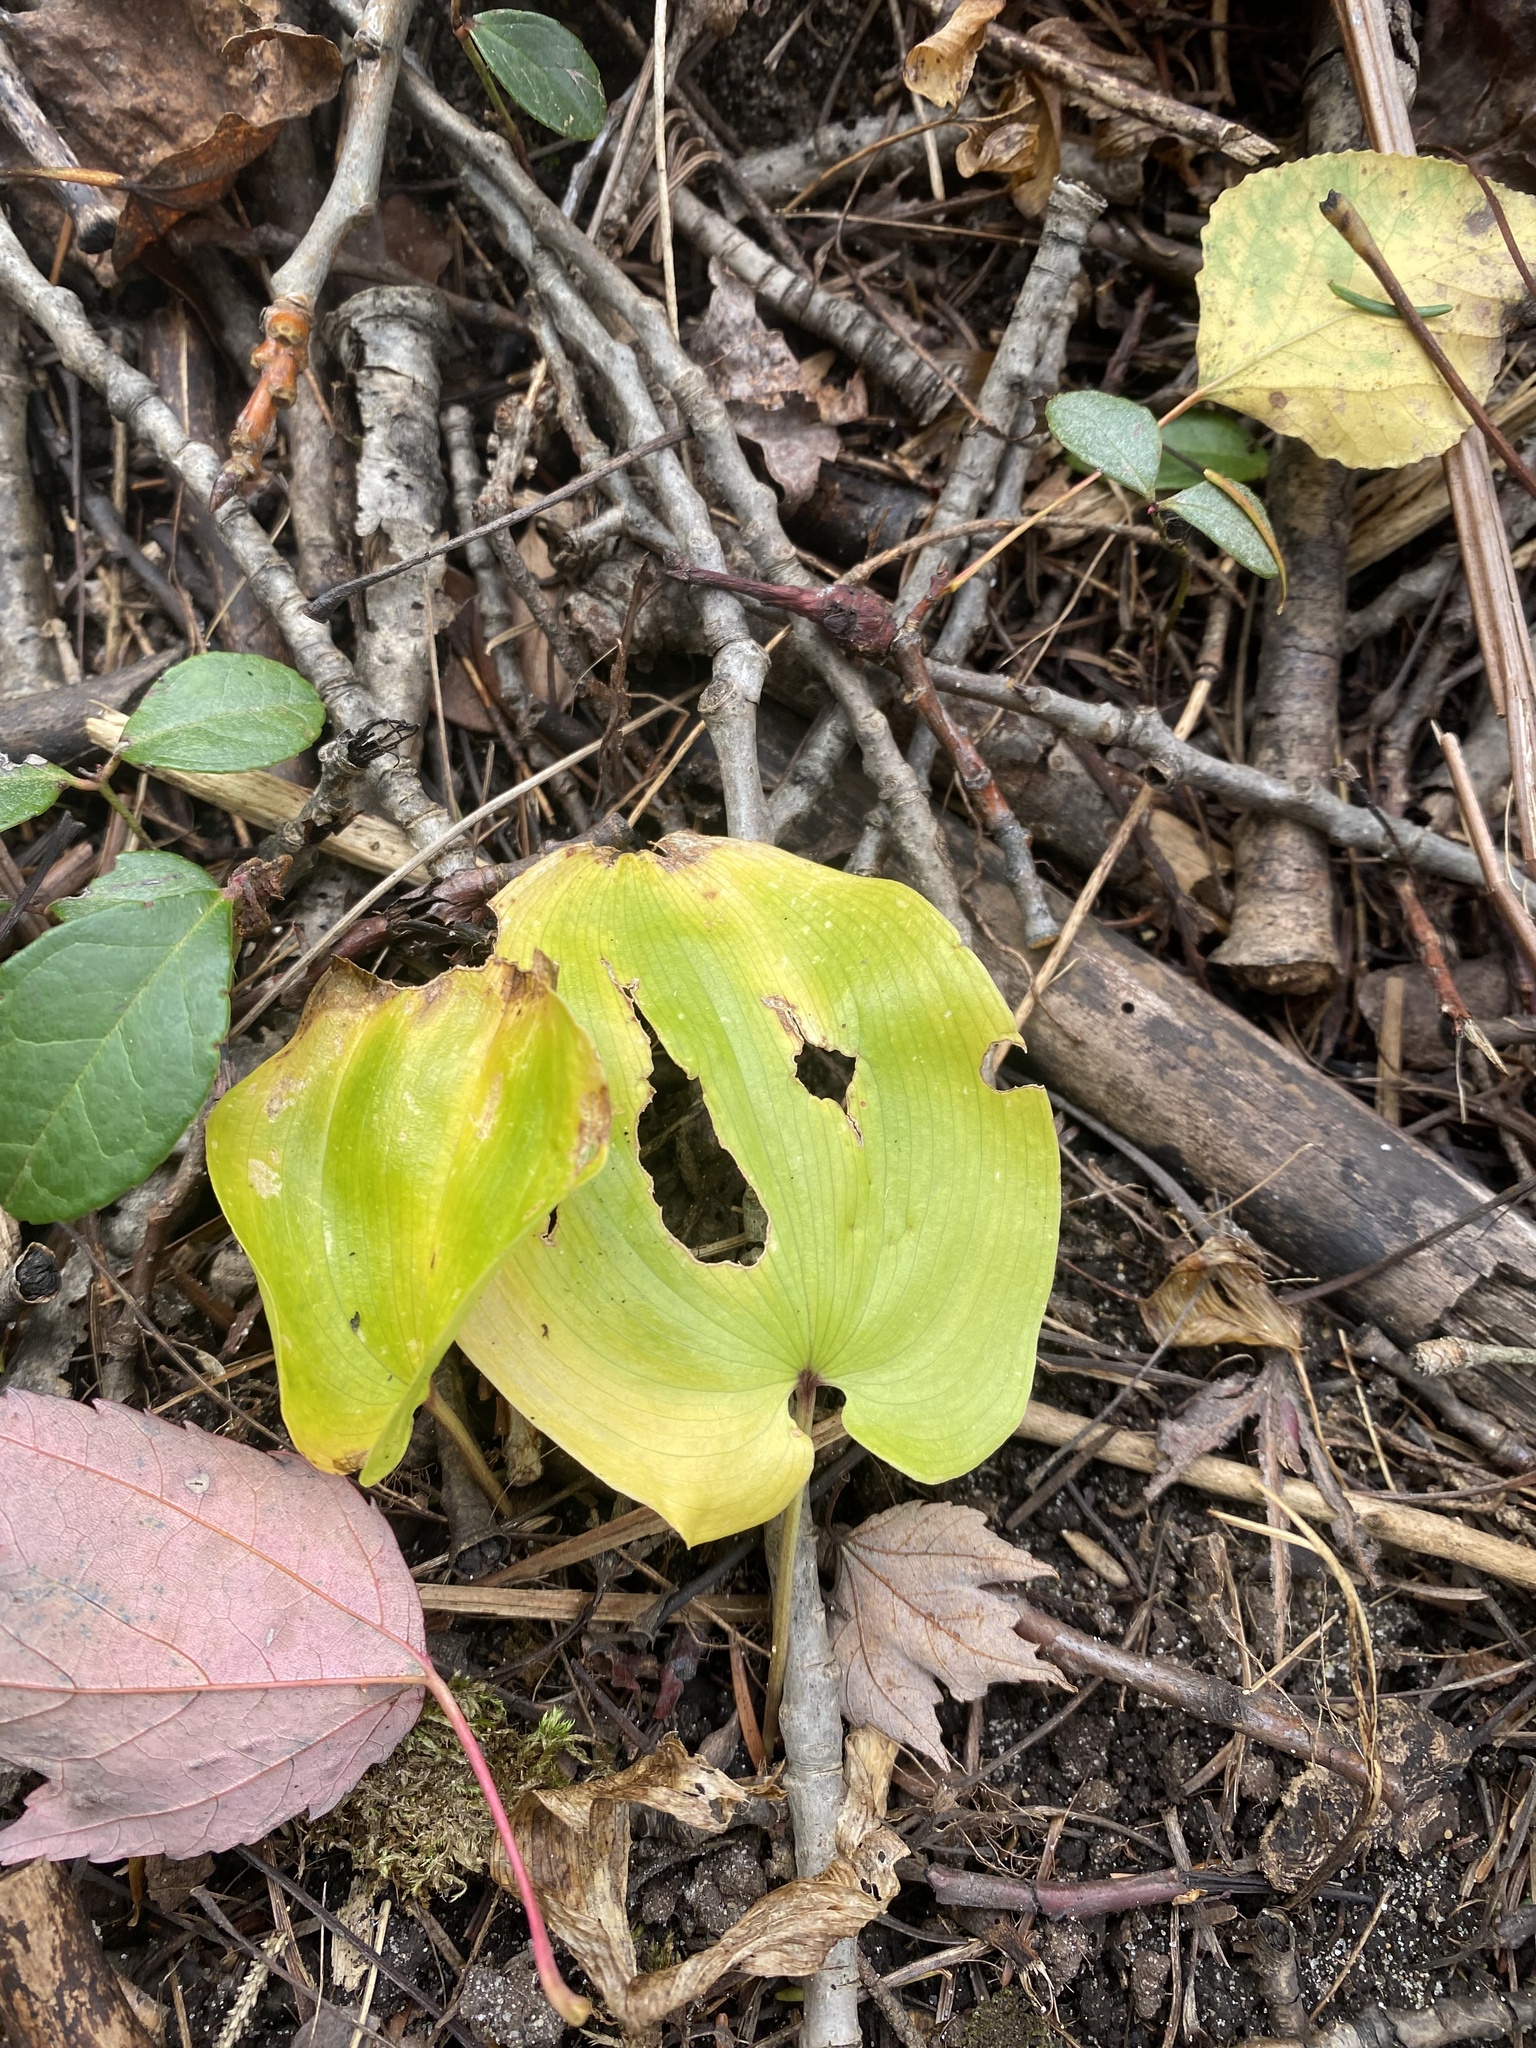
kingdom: Plantae
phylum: Tracheophyta
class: Liliopsida
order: Asparagales
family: Asparagaceae
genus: Maianthemum
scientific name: Maianthemum canadense
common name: False lily-of-the-valley
